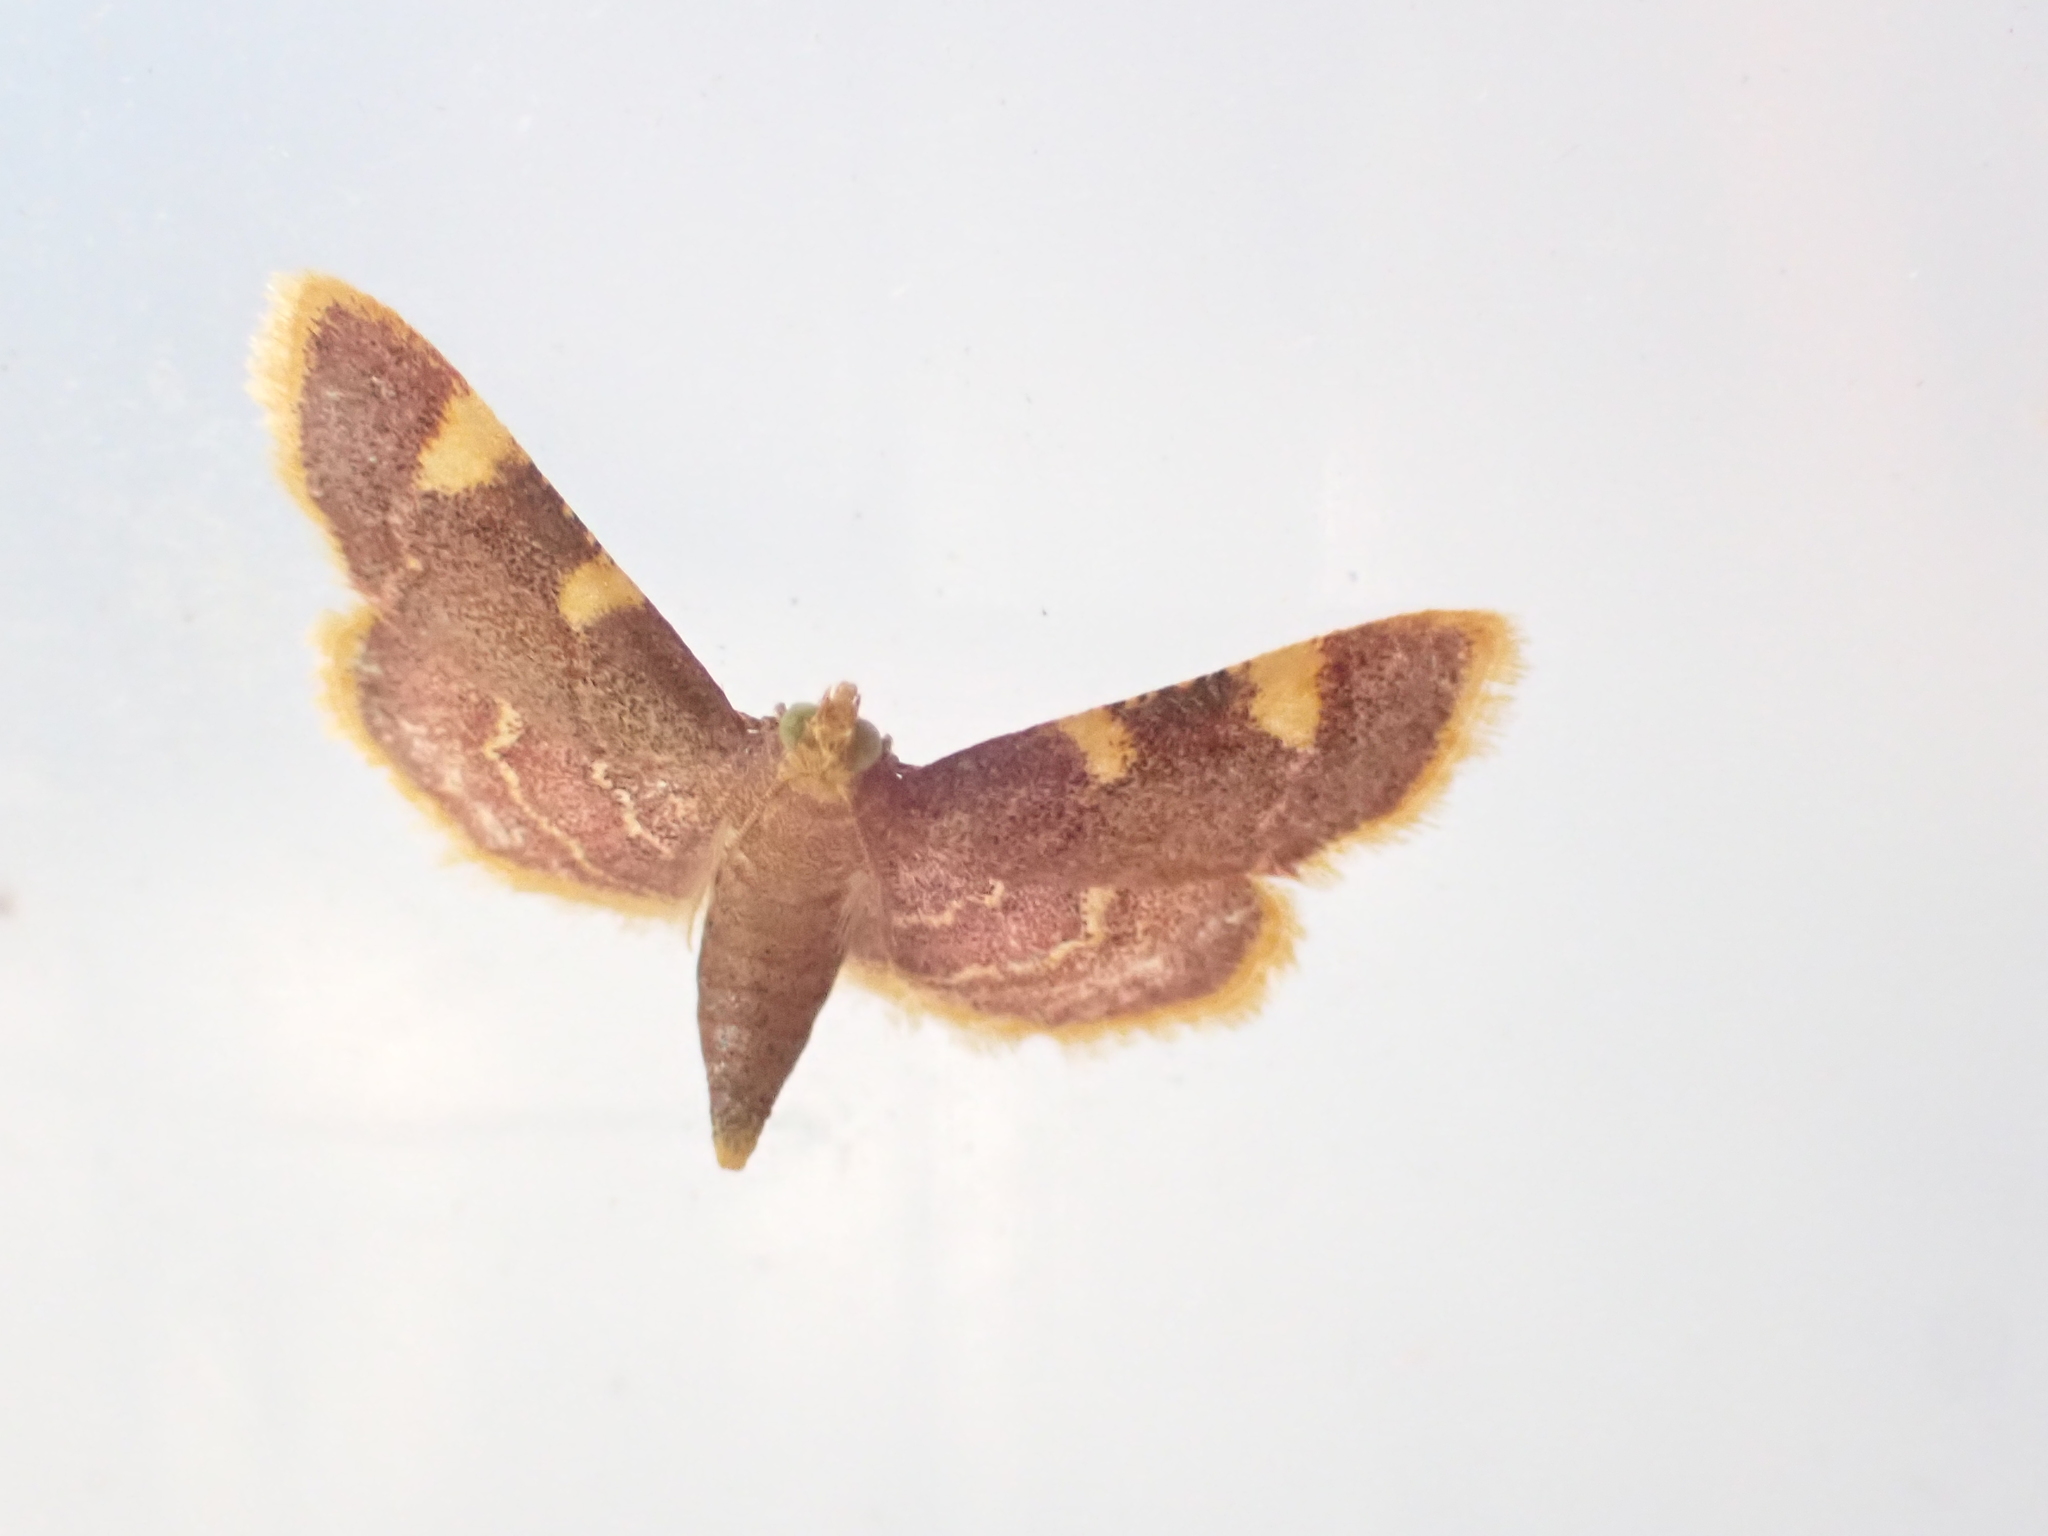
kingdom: Animalia
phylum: Arthropoda
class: Insecta
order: Lepidoptera
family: Pyralidae
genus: Hypsopygia
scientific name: Hypsopygia costalis
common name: Gold triangle
